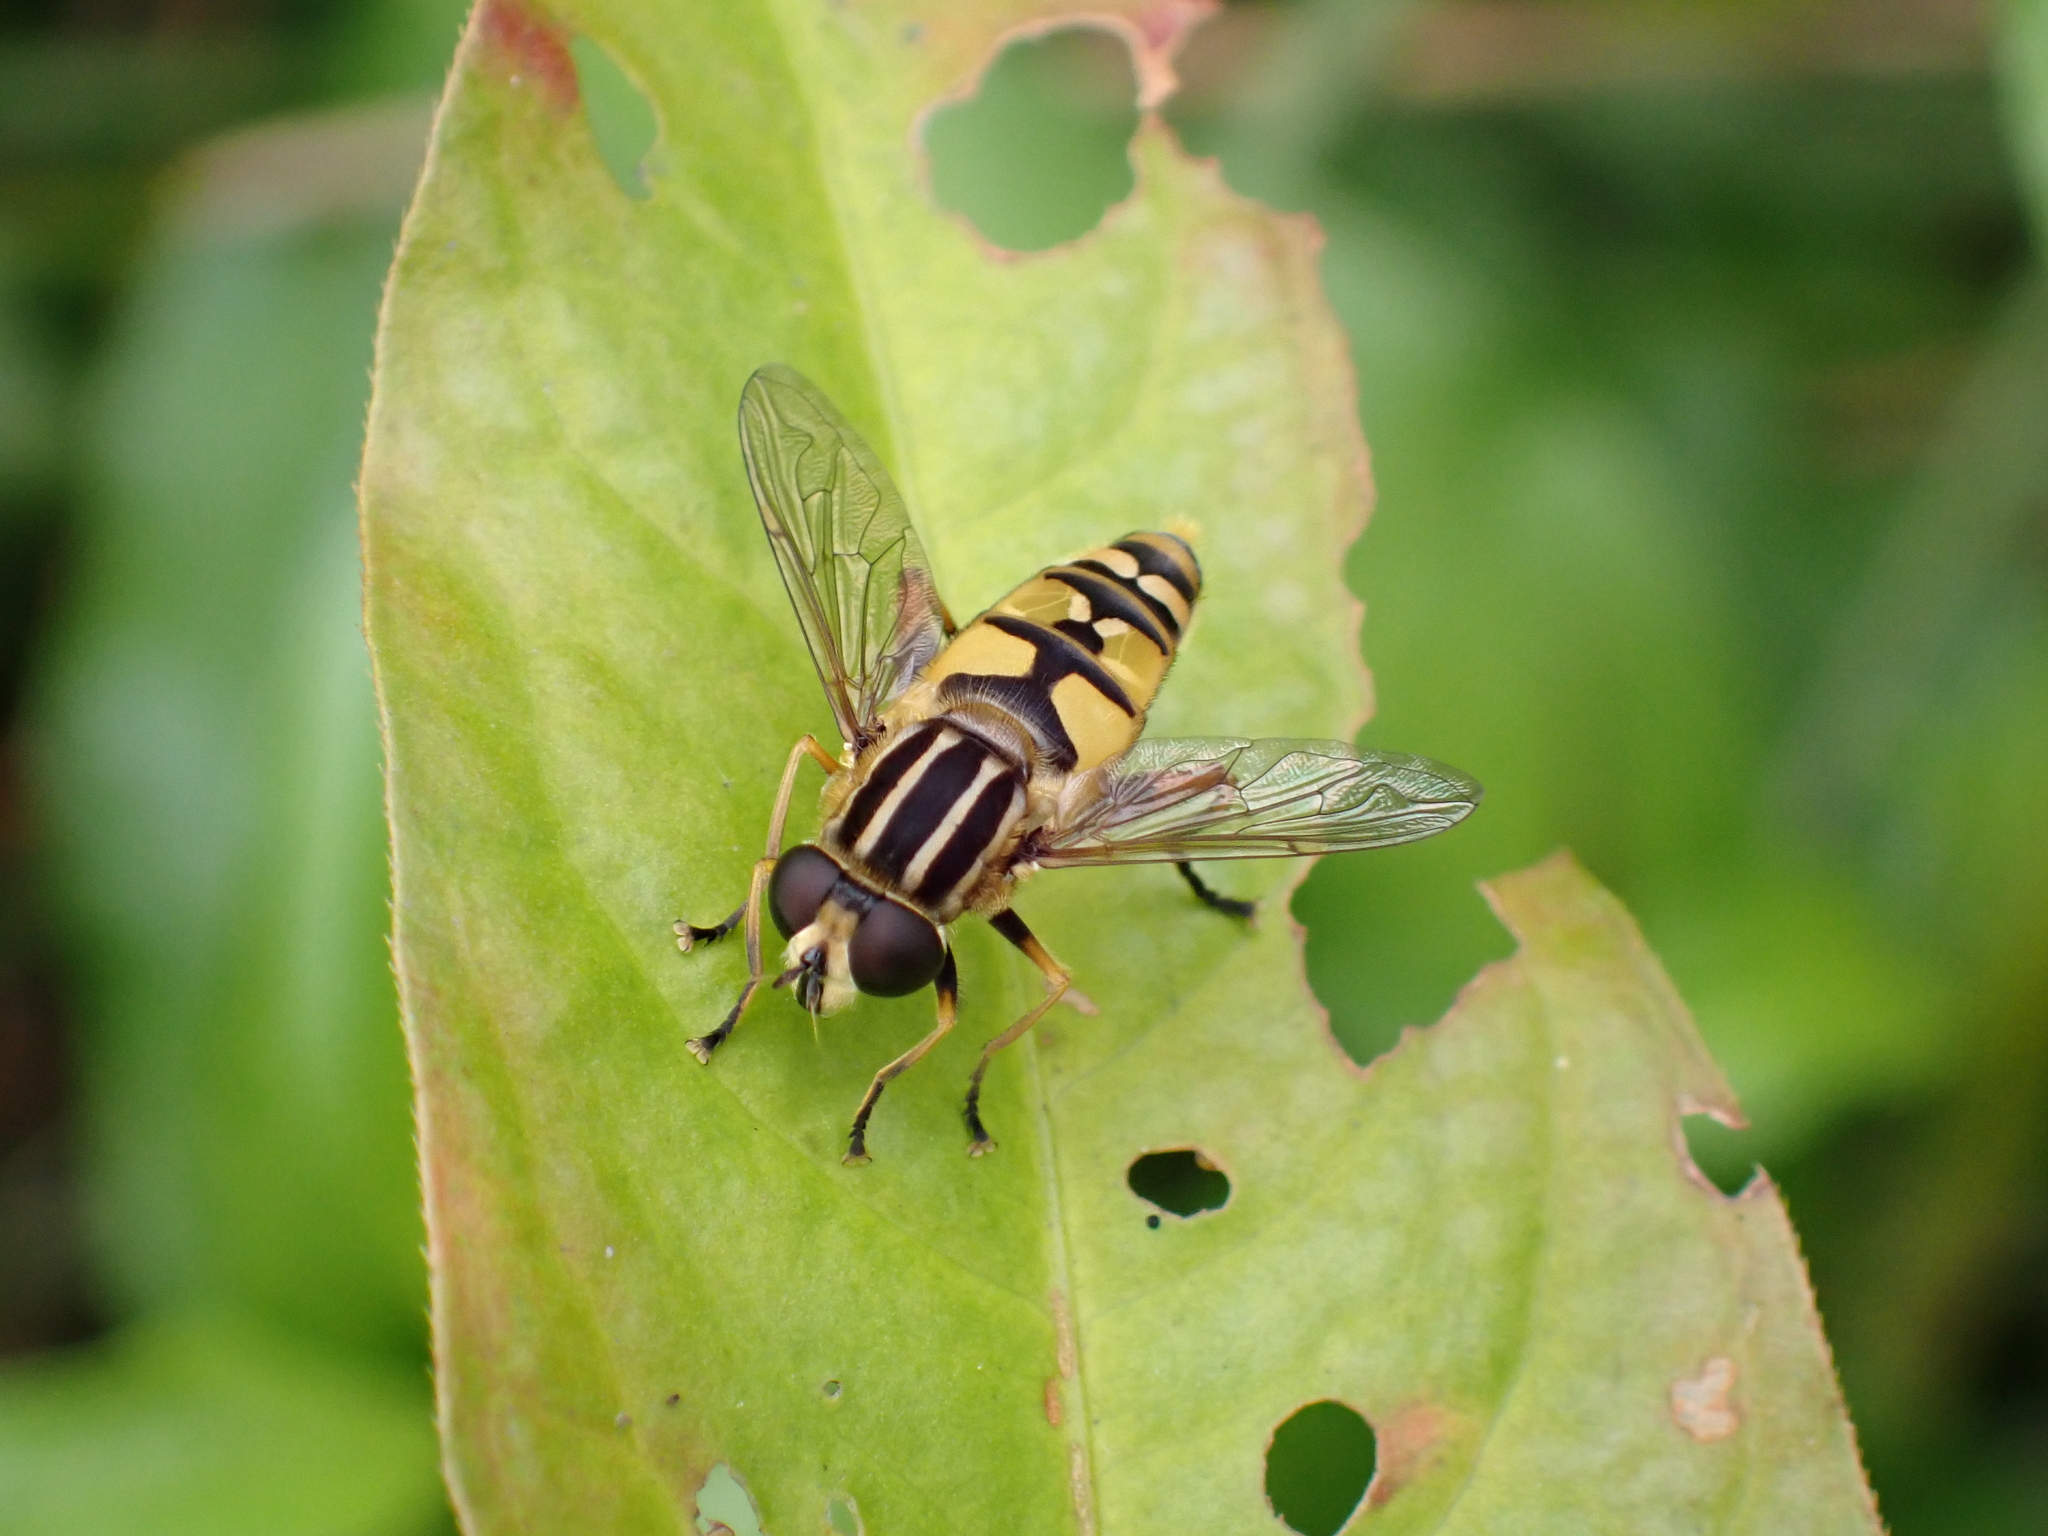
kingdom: Animalia
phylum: Arthropoda
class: Insecta
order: Diptera
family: Syrphidae
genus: Helophilus
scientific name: Helophilus pendulus
